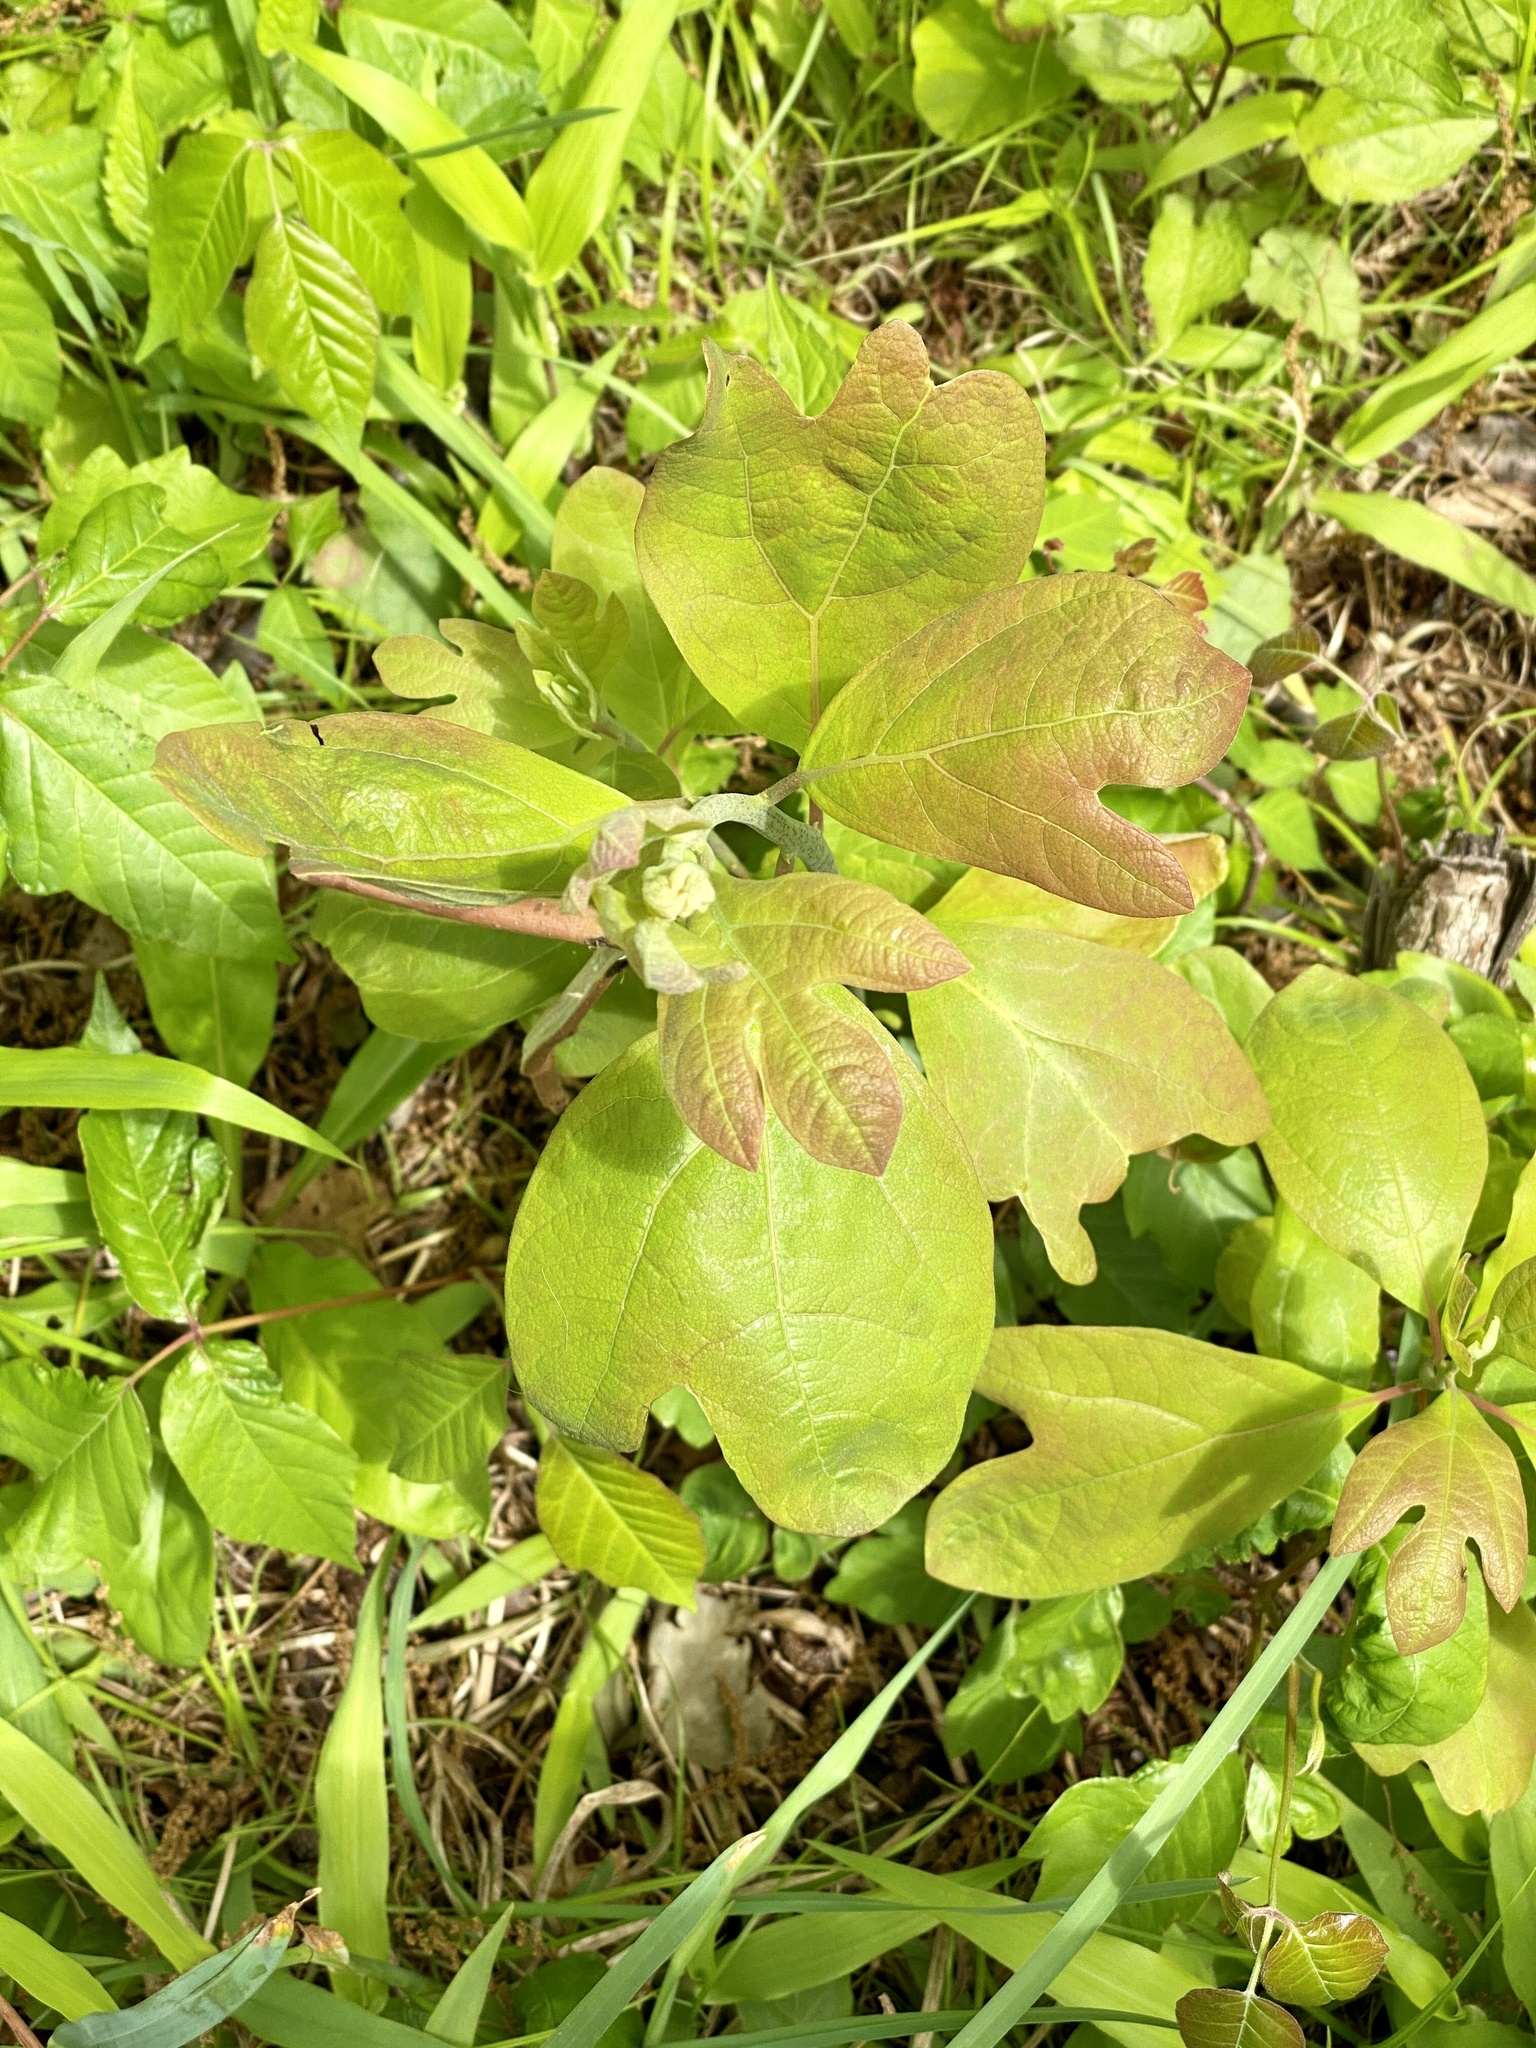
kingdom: Plantae
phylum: Tracheophyta
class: Magnoliopsida
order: Laurales
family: Lauraceae
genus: Sassafras
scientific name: Sassafras albidum
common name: Sassafras
